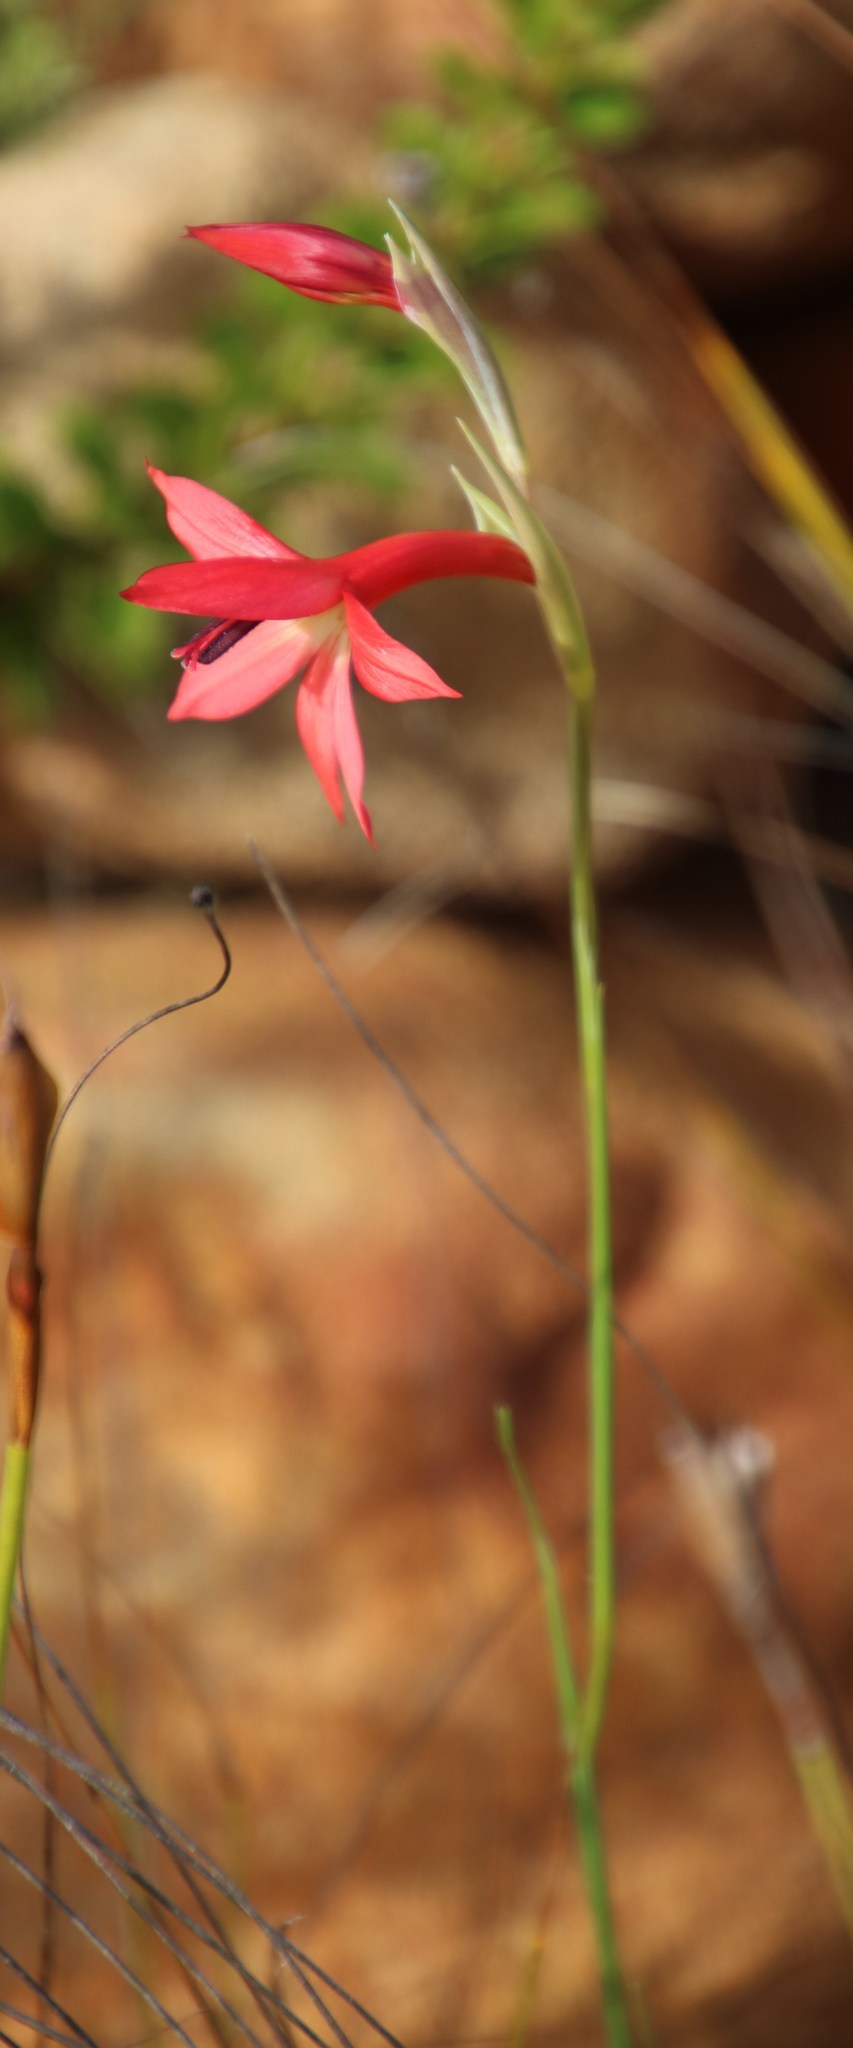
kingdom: Plantae
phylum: Tracheophyta
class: Liliopsida
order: Asparagales
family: Iridaceae
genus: Gladiolus
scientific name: Gladiolus priorii
